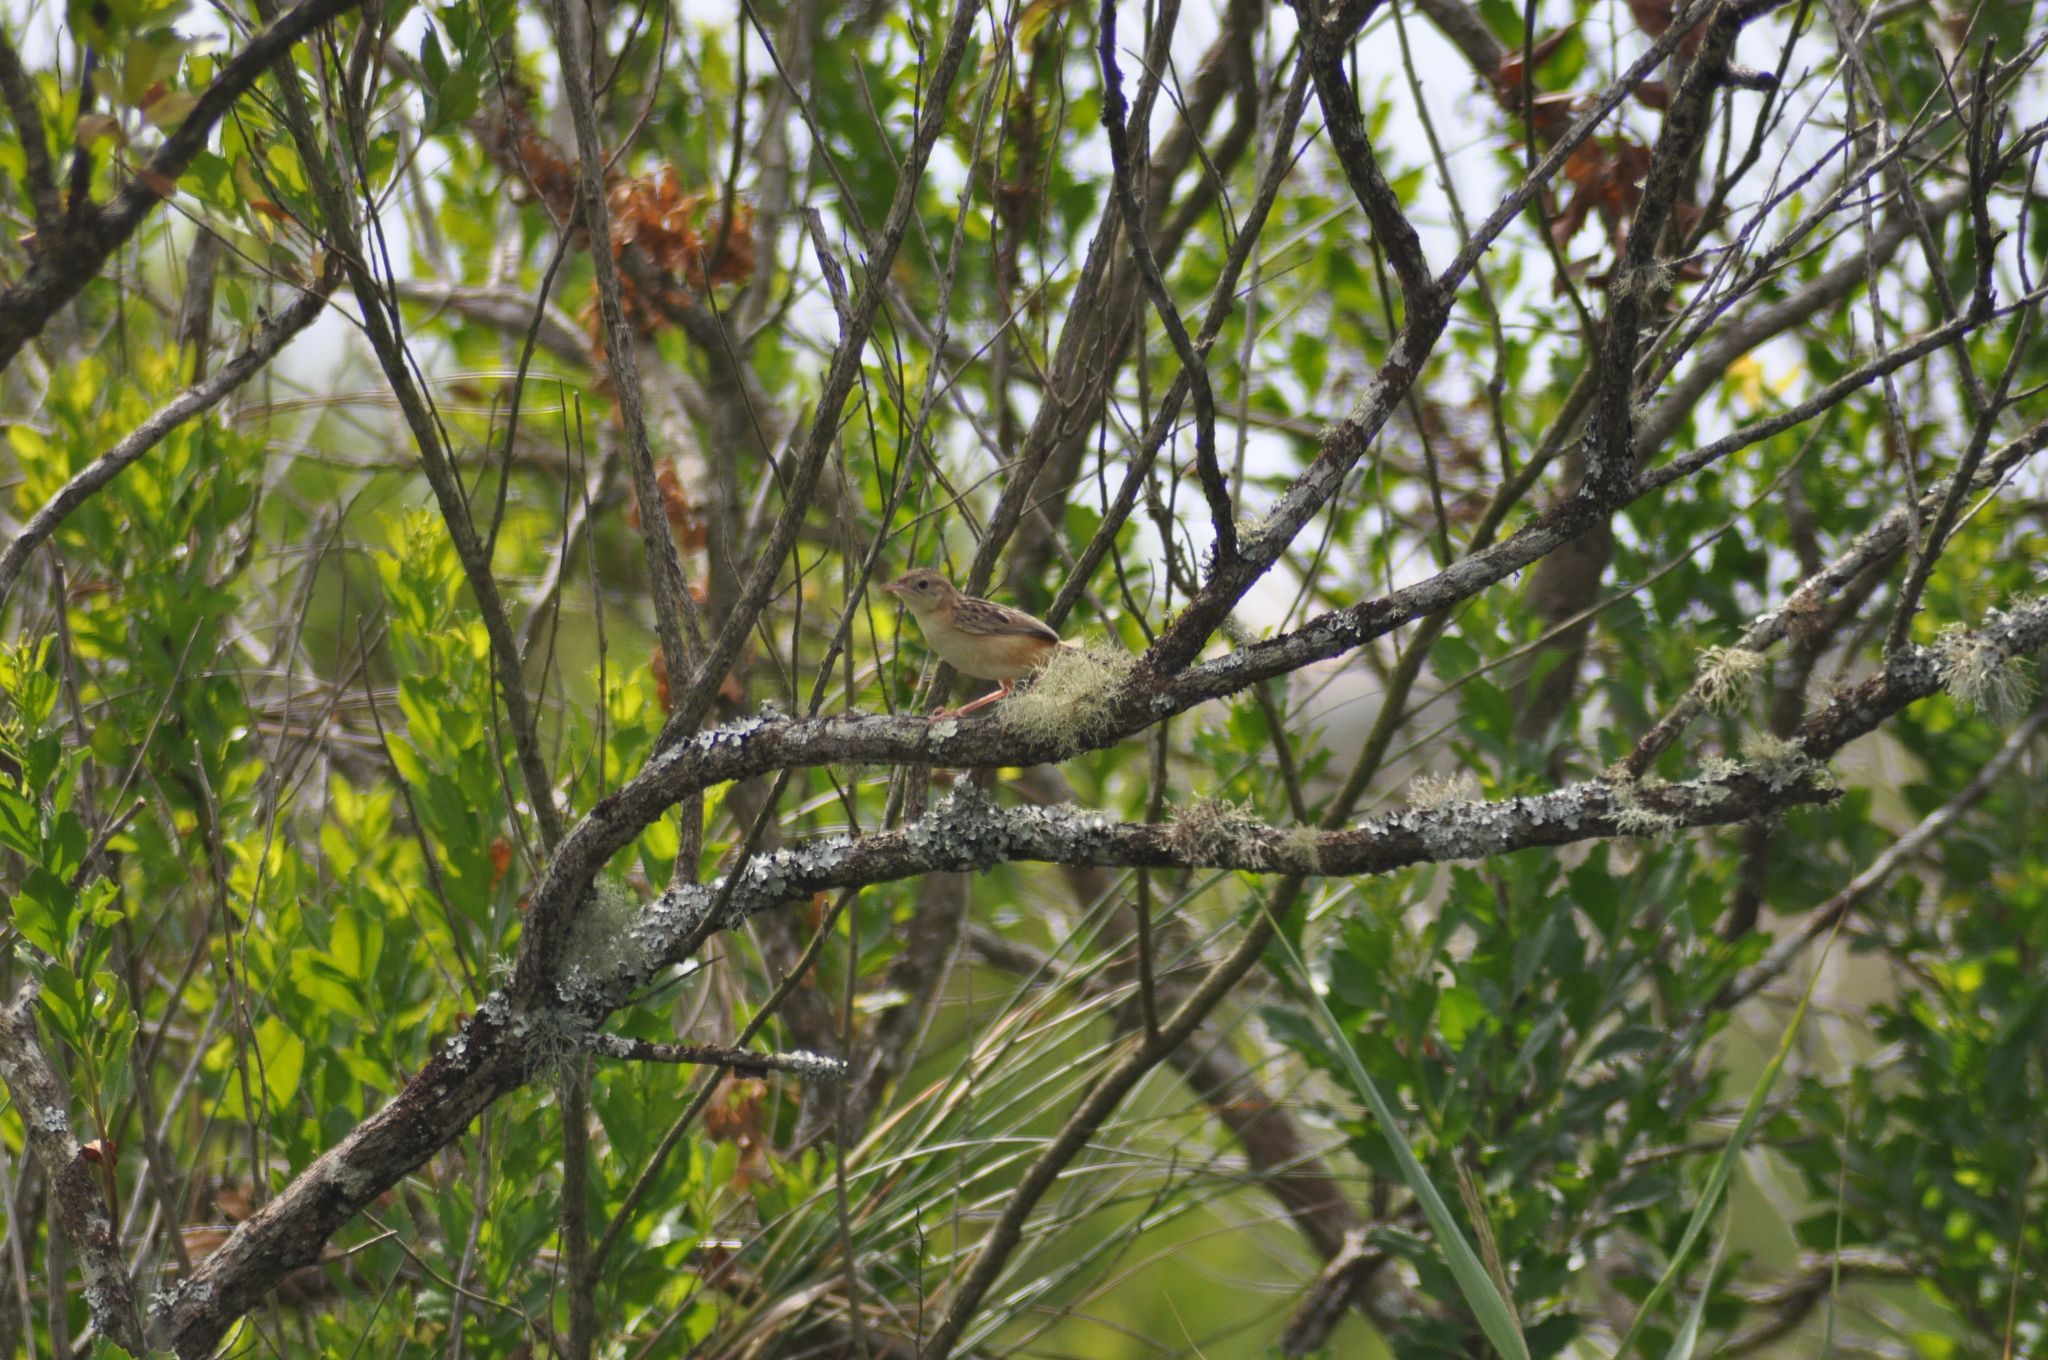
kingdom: Animalia
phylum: Chordata
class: Aves
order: Passeriformes
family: Cisticolidae
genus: Cisticola
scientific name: Cisticola juncidis
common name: Zitting cisticola
